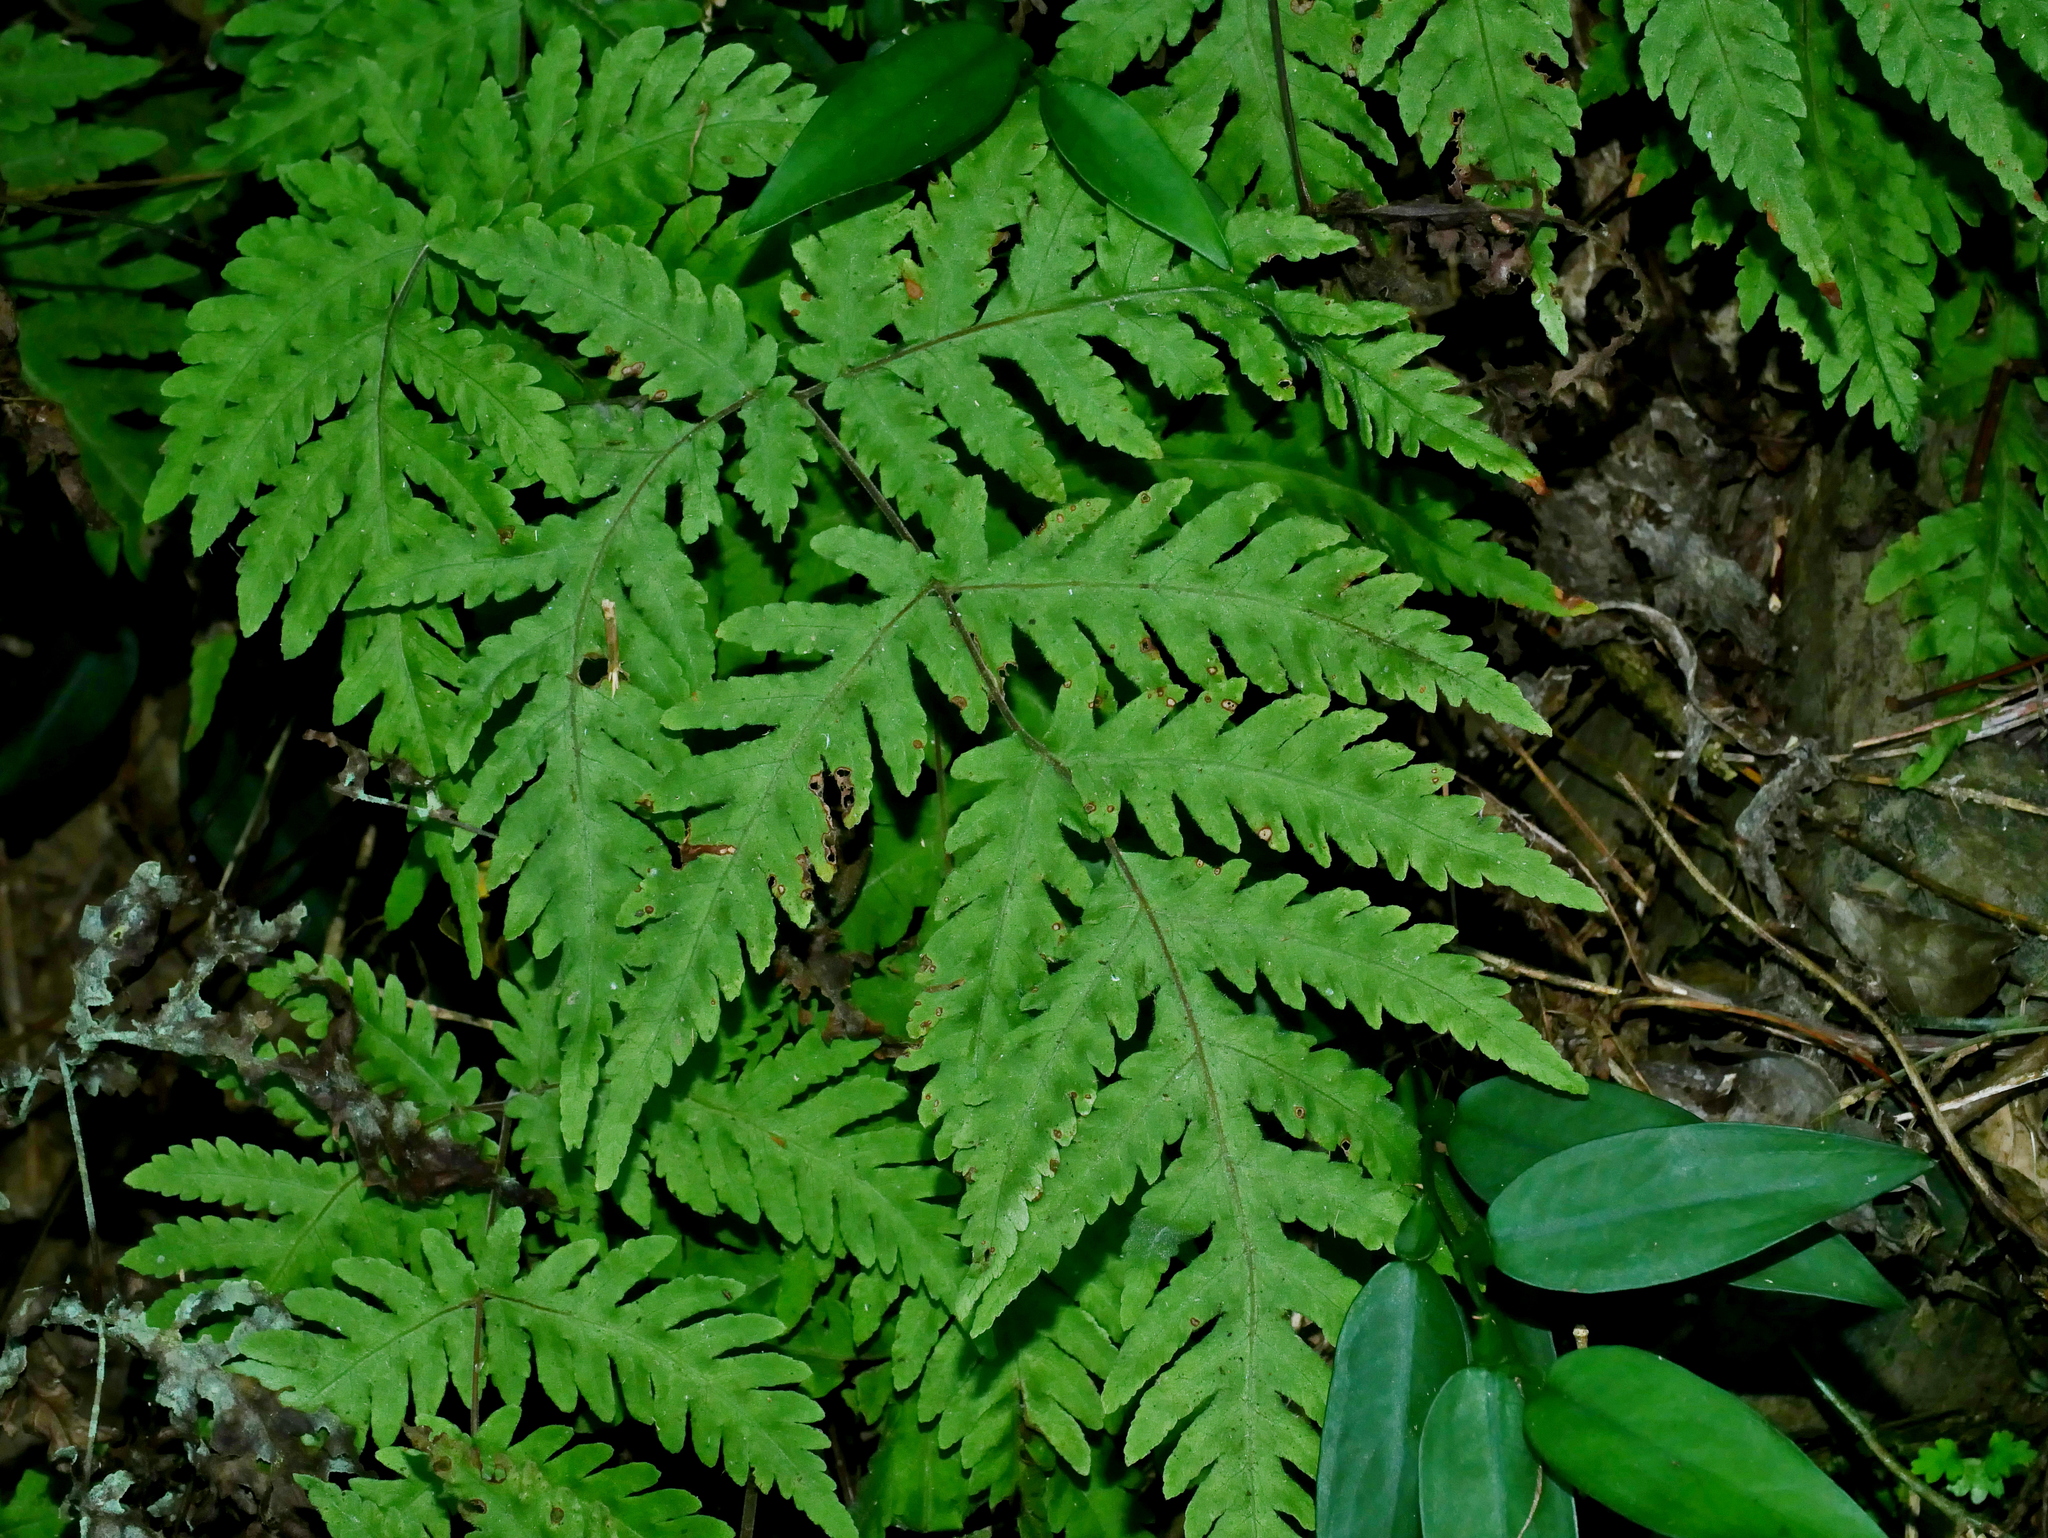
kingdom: Plantae
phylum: Tracheophyta
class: Polypodiopsida
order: Polypodiales
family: Tectariaceae
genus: Tectaria
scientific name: Tectaria membranacea
